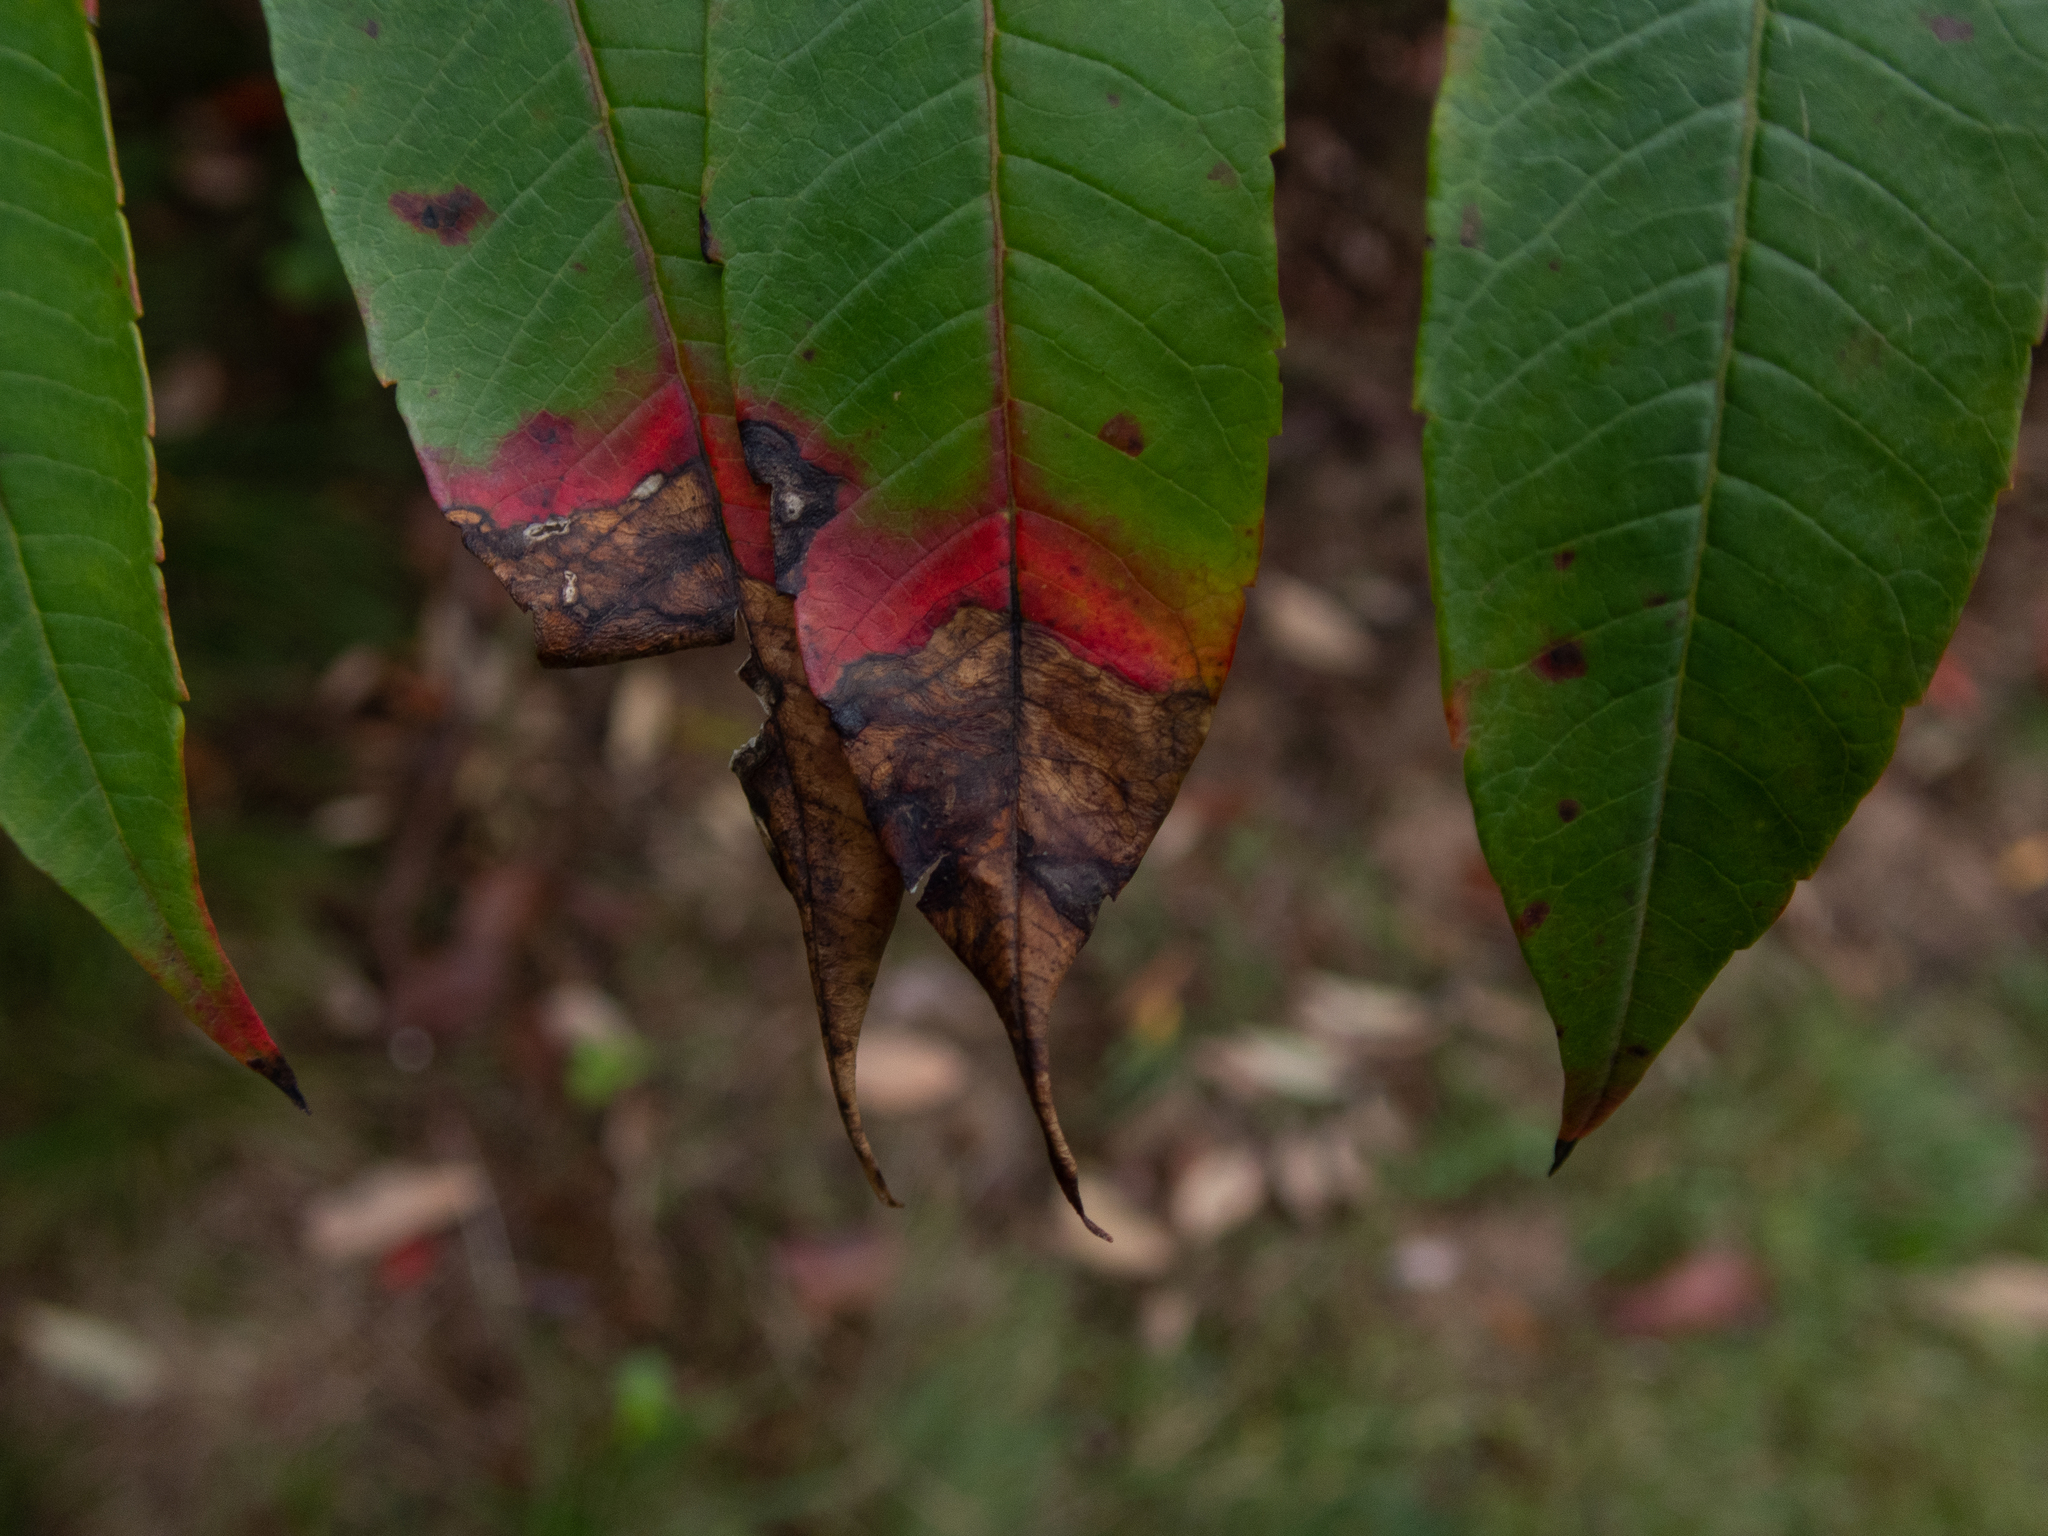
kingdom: Plantae
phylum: Tracheophyta
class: Magnoliopsida
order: Sapindales
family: Anacardiaceae
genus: Rhus
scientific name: Rhus glabra
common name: Scarlet sumac
